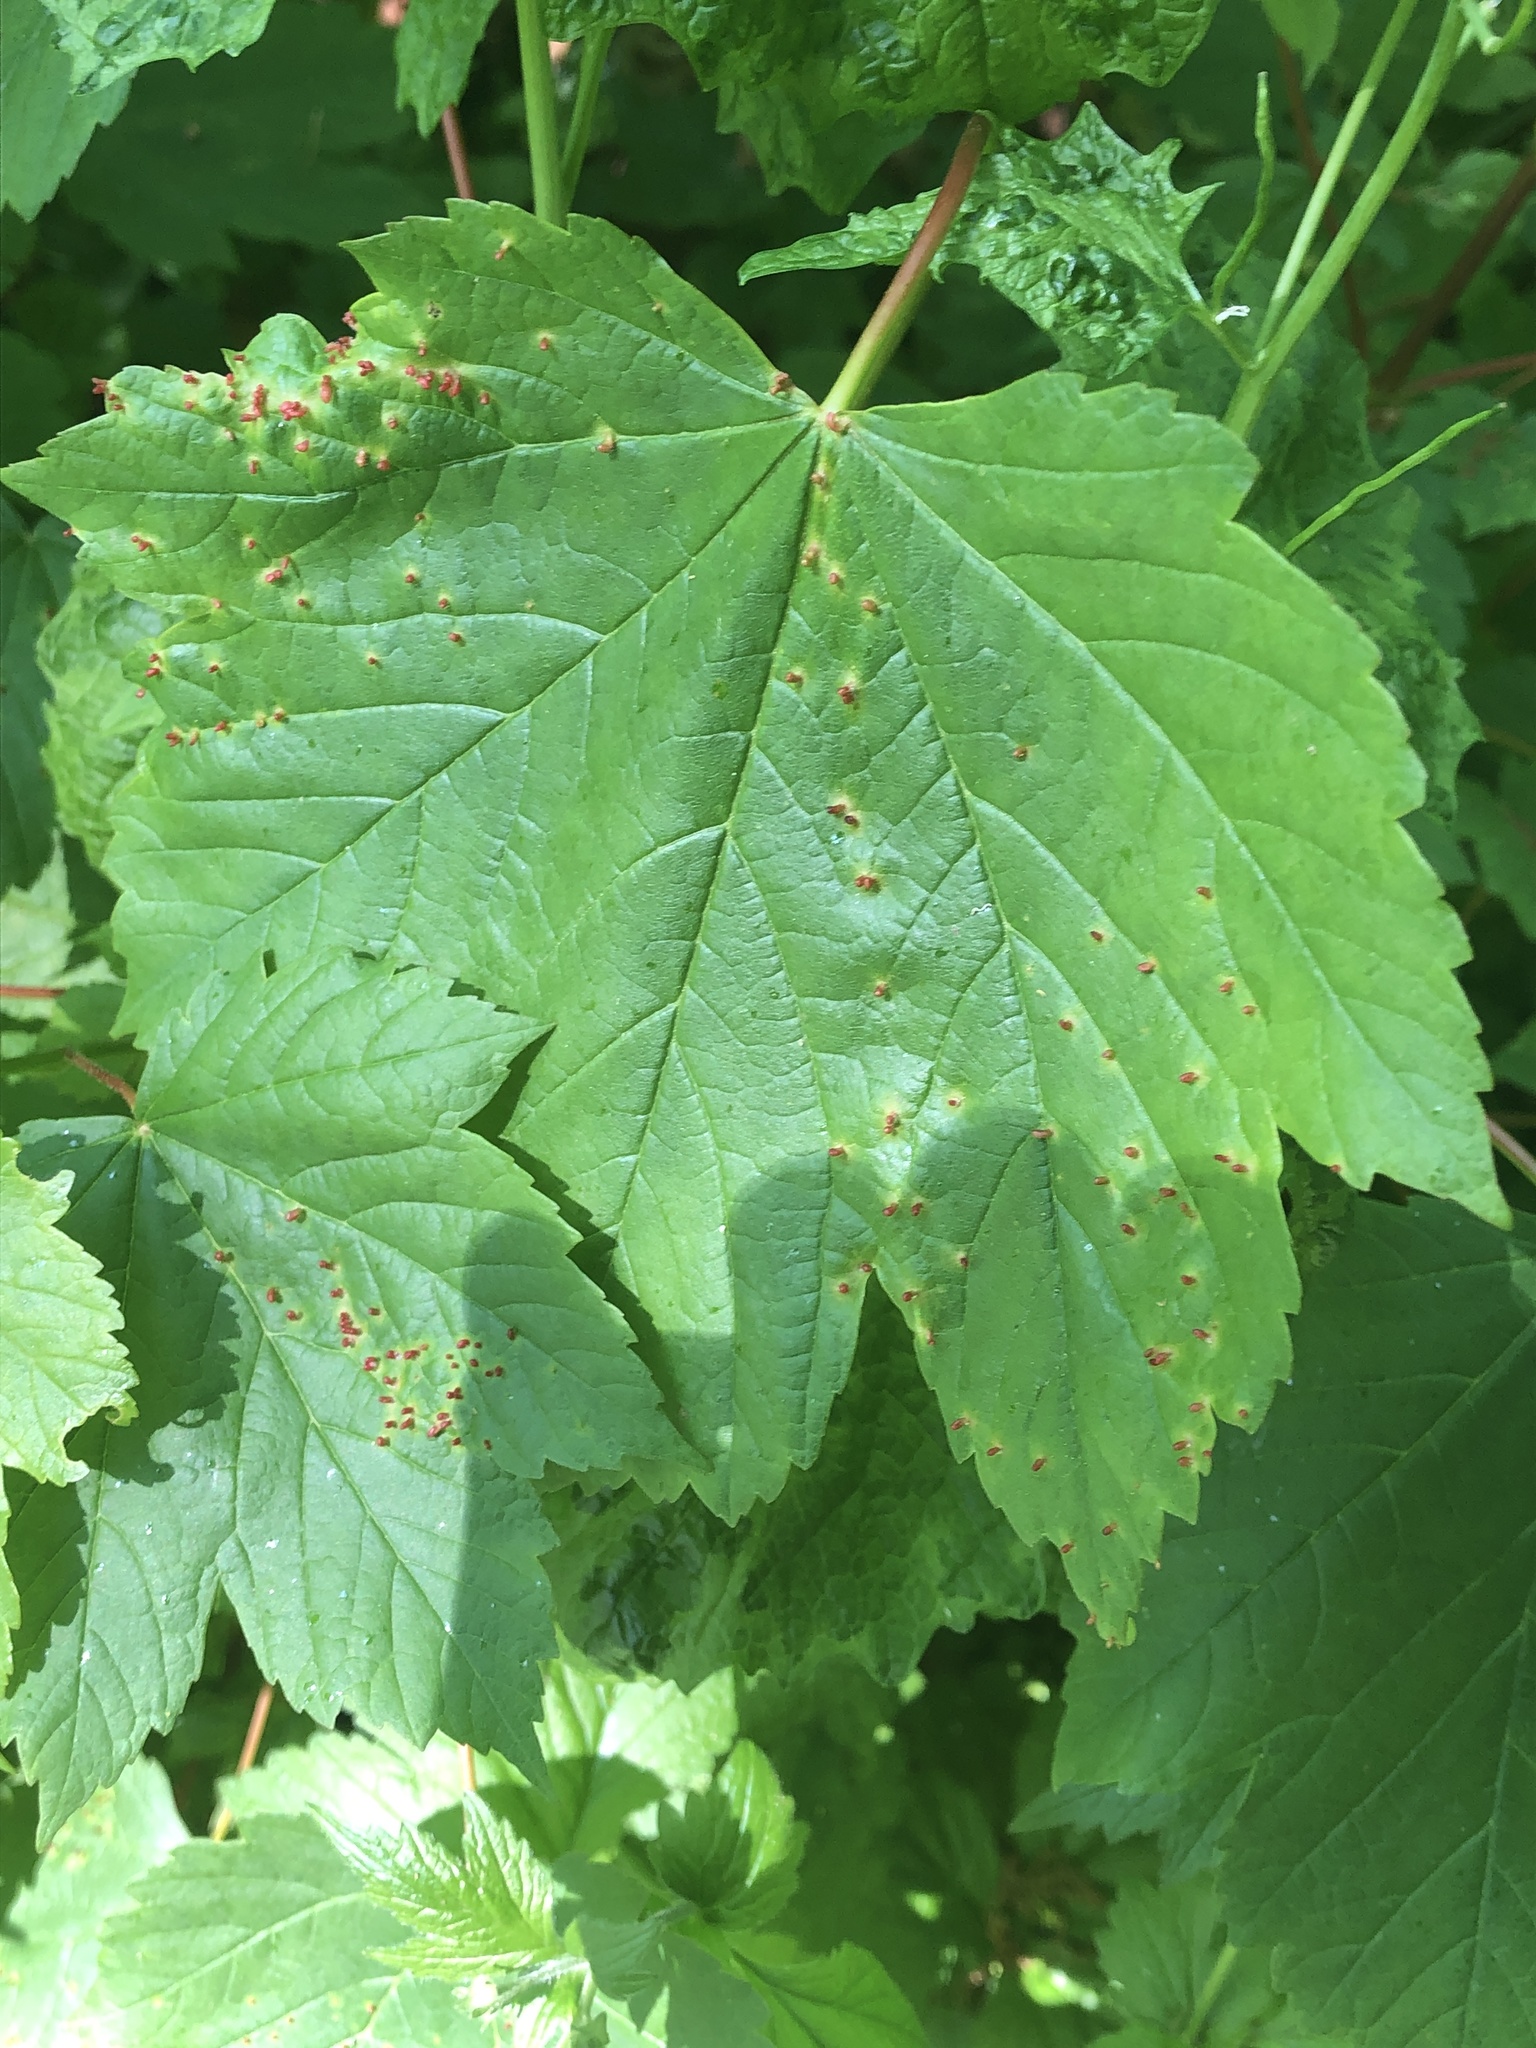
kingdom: Animalia
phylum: Arthropoda
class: Arachnida
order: Trombidiformes
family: Eriophyidae
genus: Aceria
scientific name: Aceria cephaloneus
